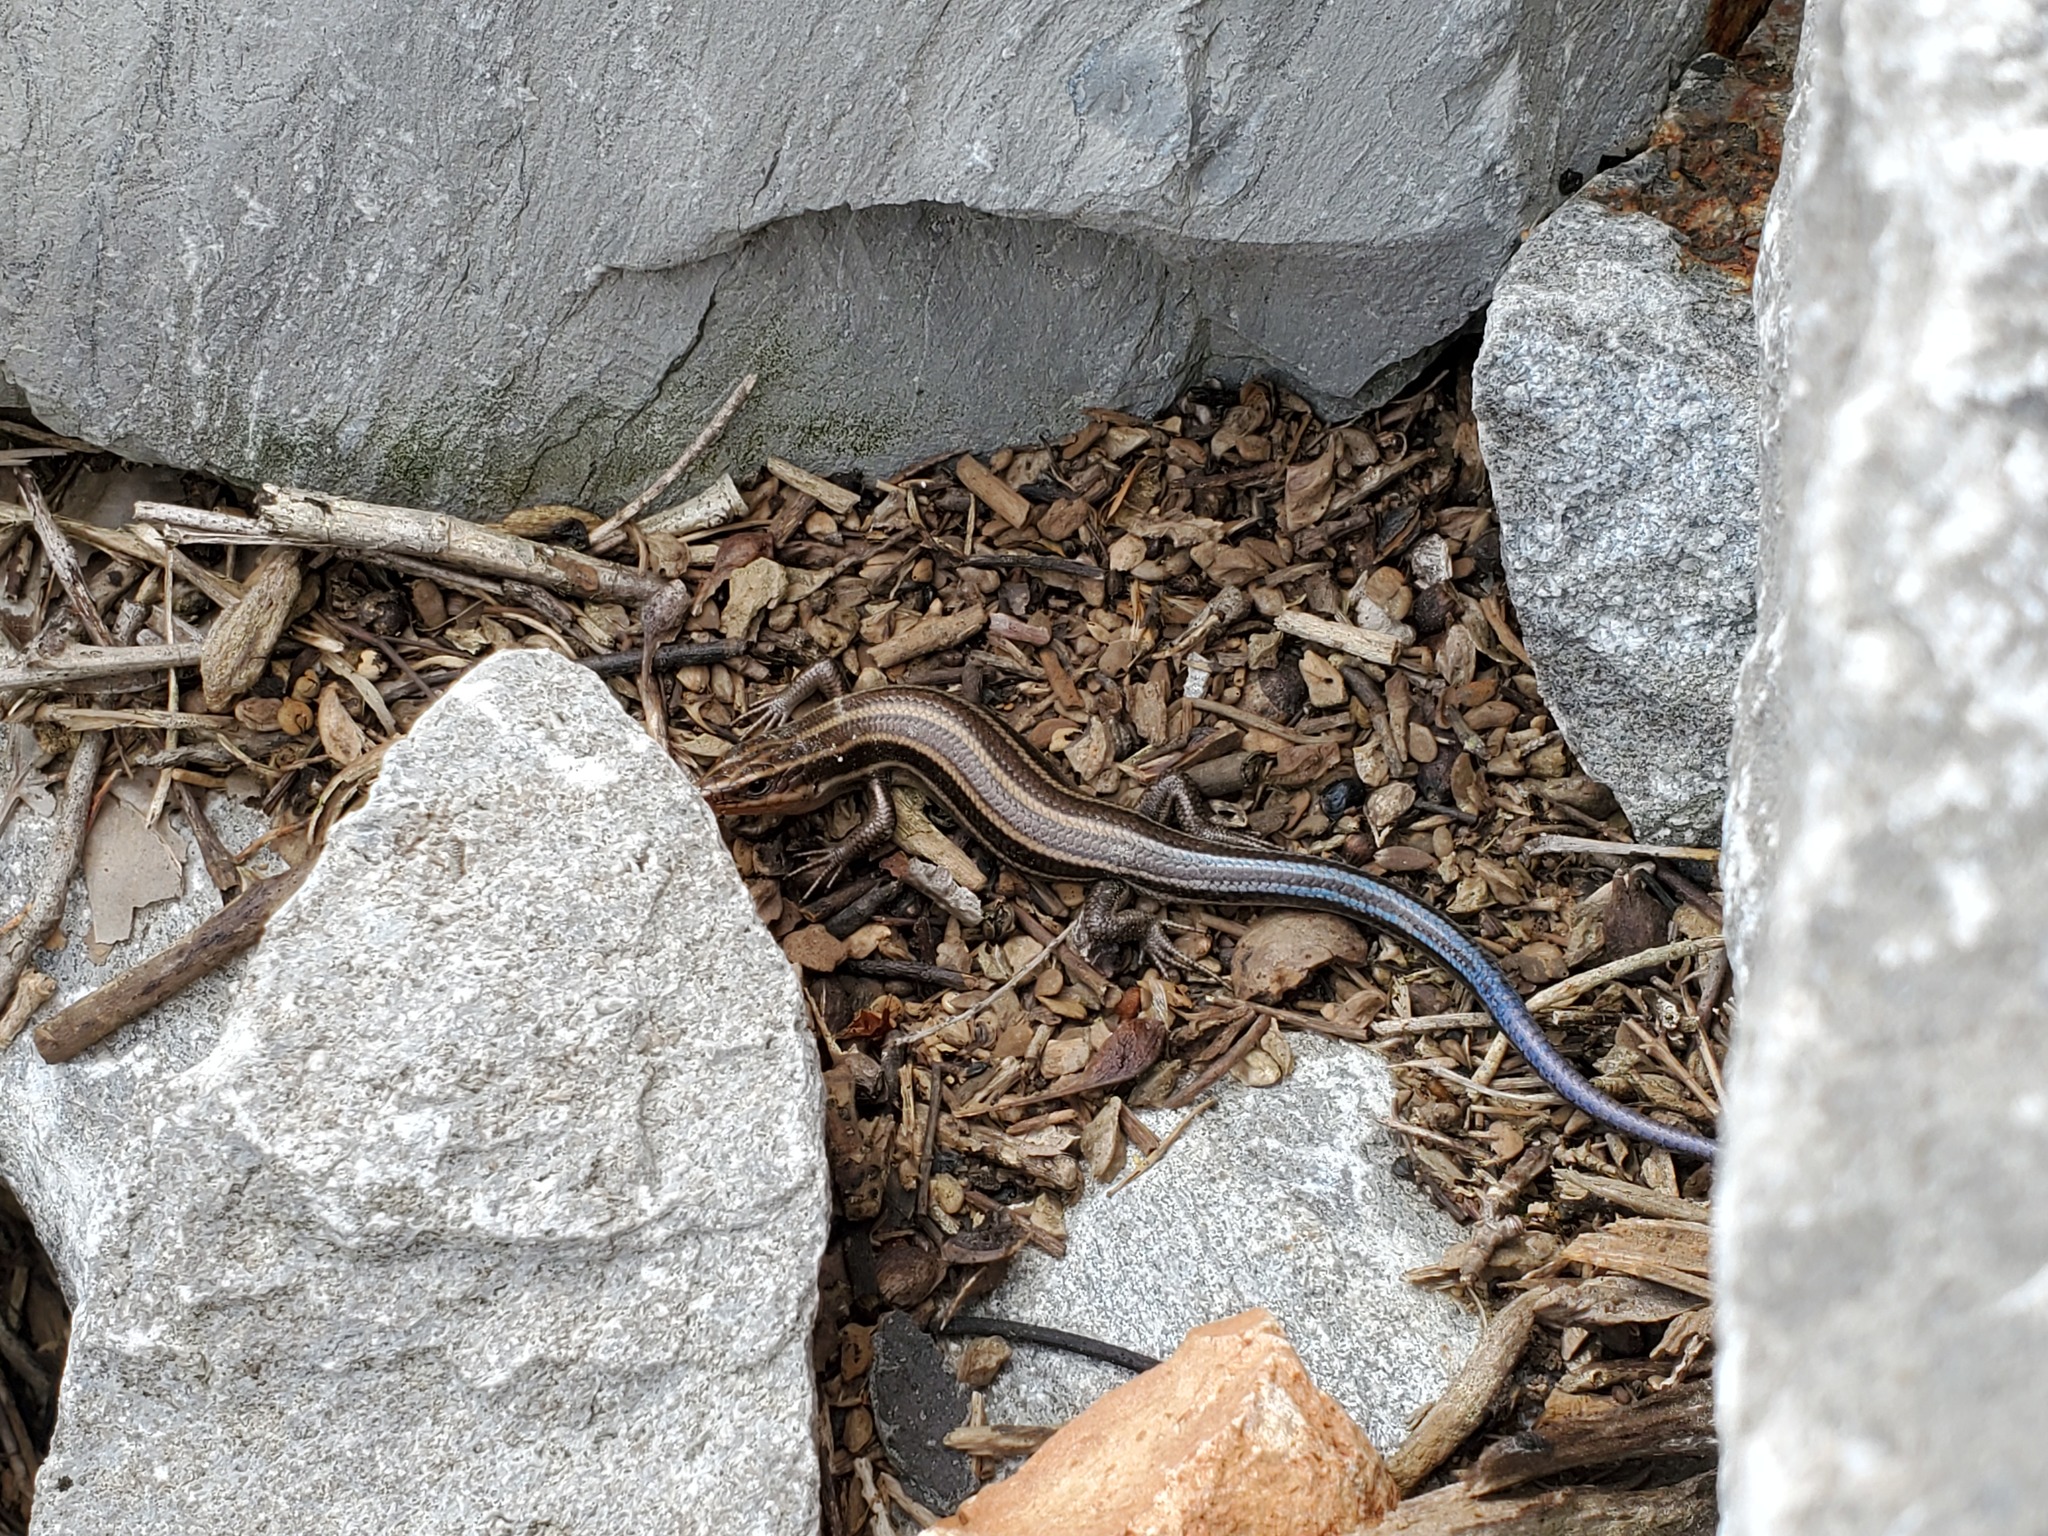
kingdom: Animalia
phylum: Chordata
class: Squamata
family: Scincidae
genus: Plestiodon
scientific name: Plestiodon fasciatus
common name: Five-lined skink
